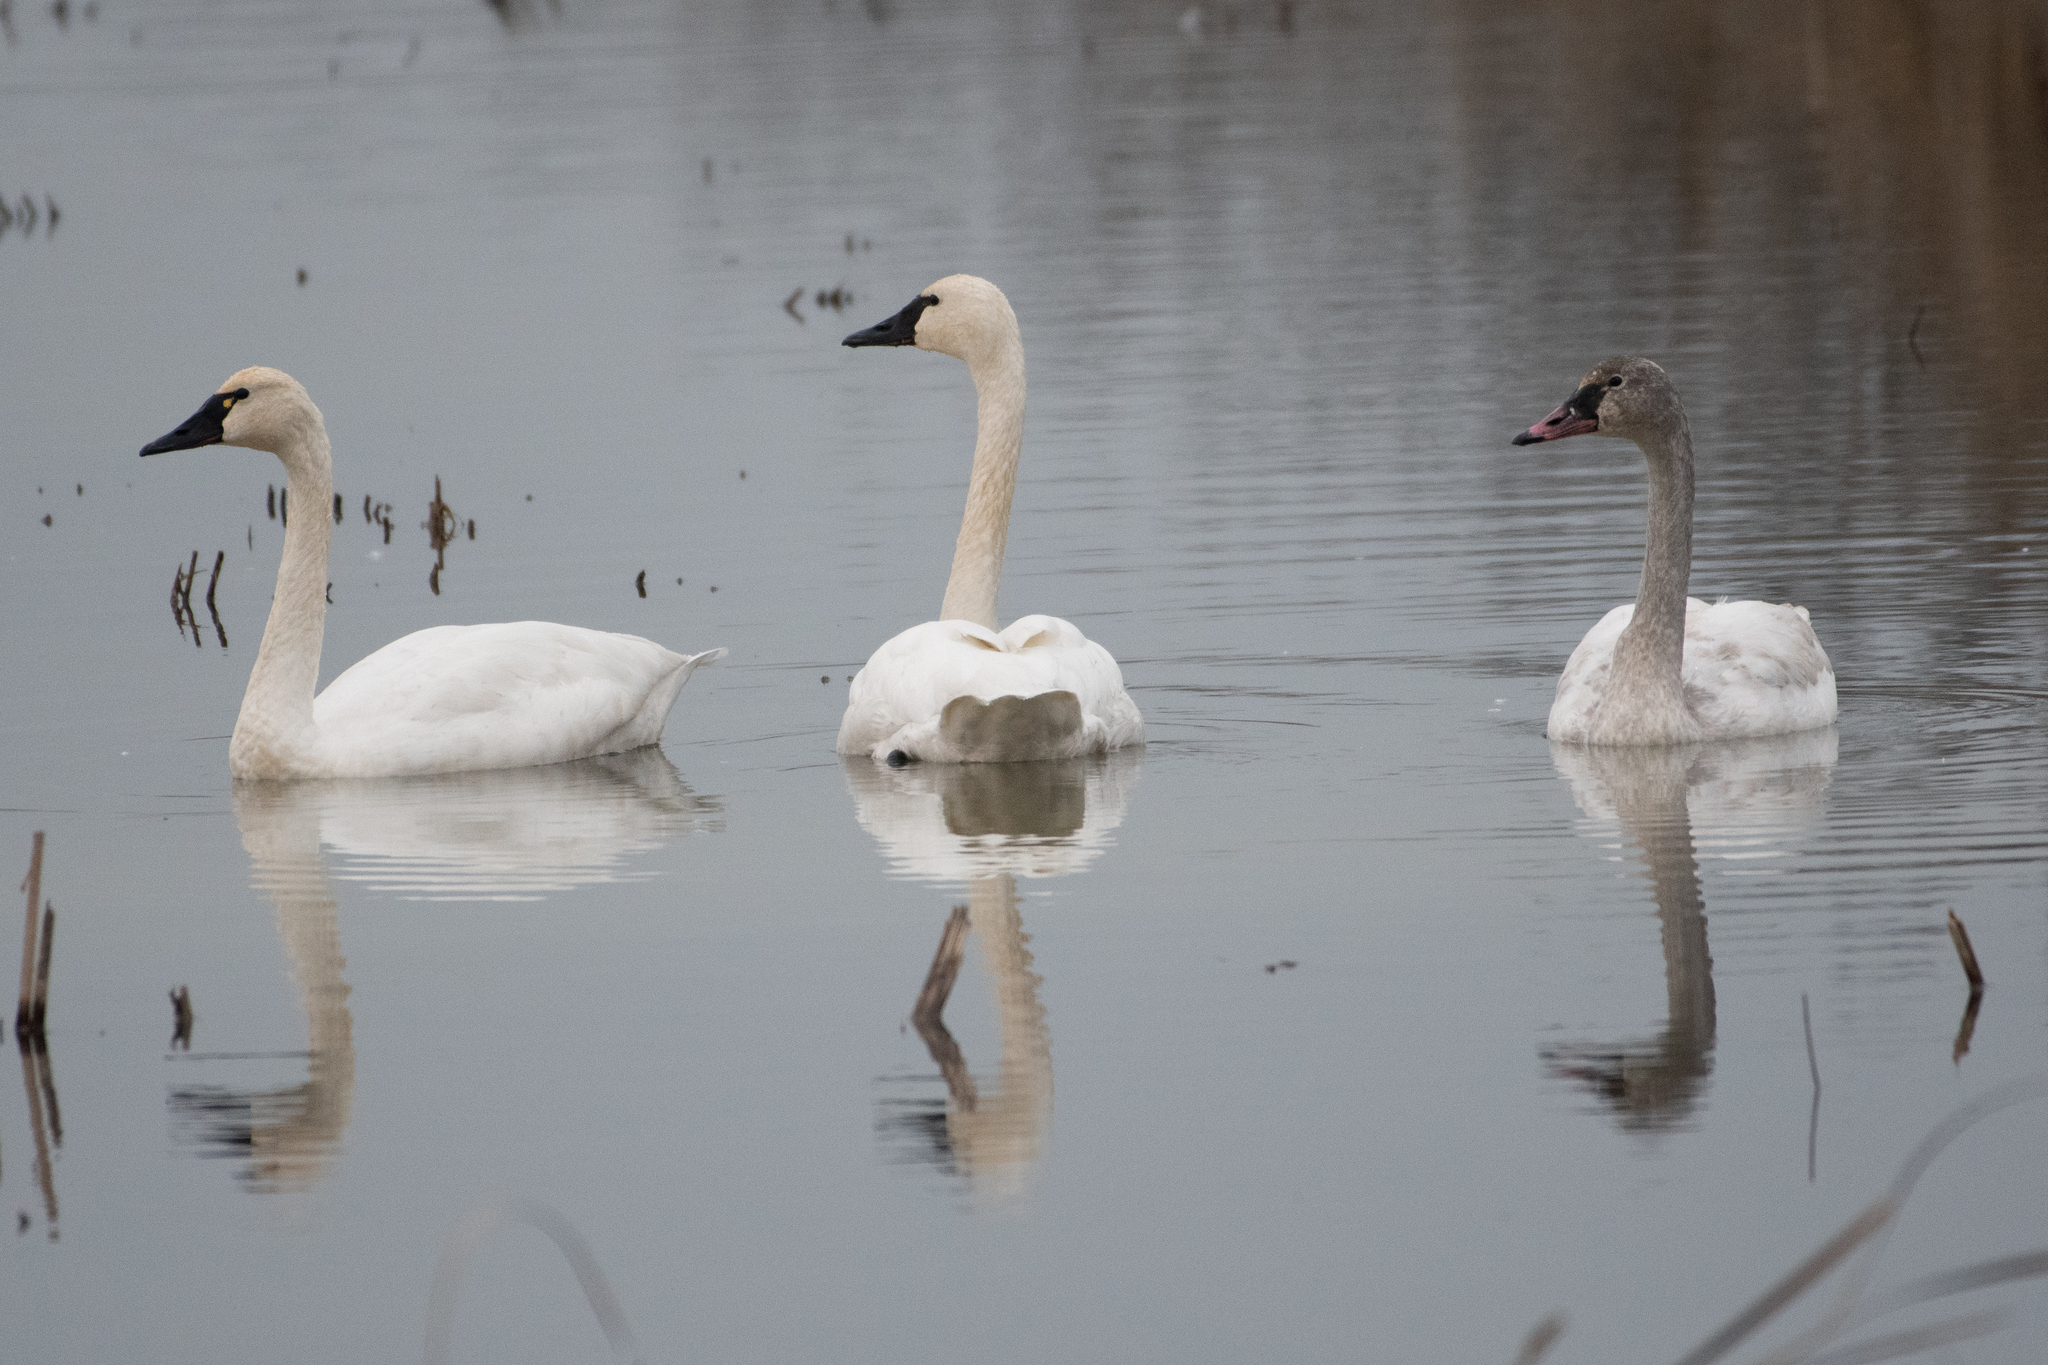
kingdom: Animalia
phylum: Chordata
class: Aves
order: Anseriformes
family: Anatidae
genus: Cygnus
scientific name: Cygnus columbianus
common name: Tundra swan
